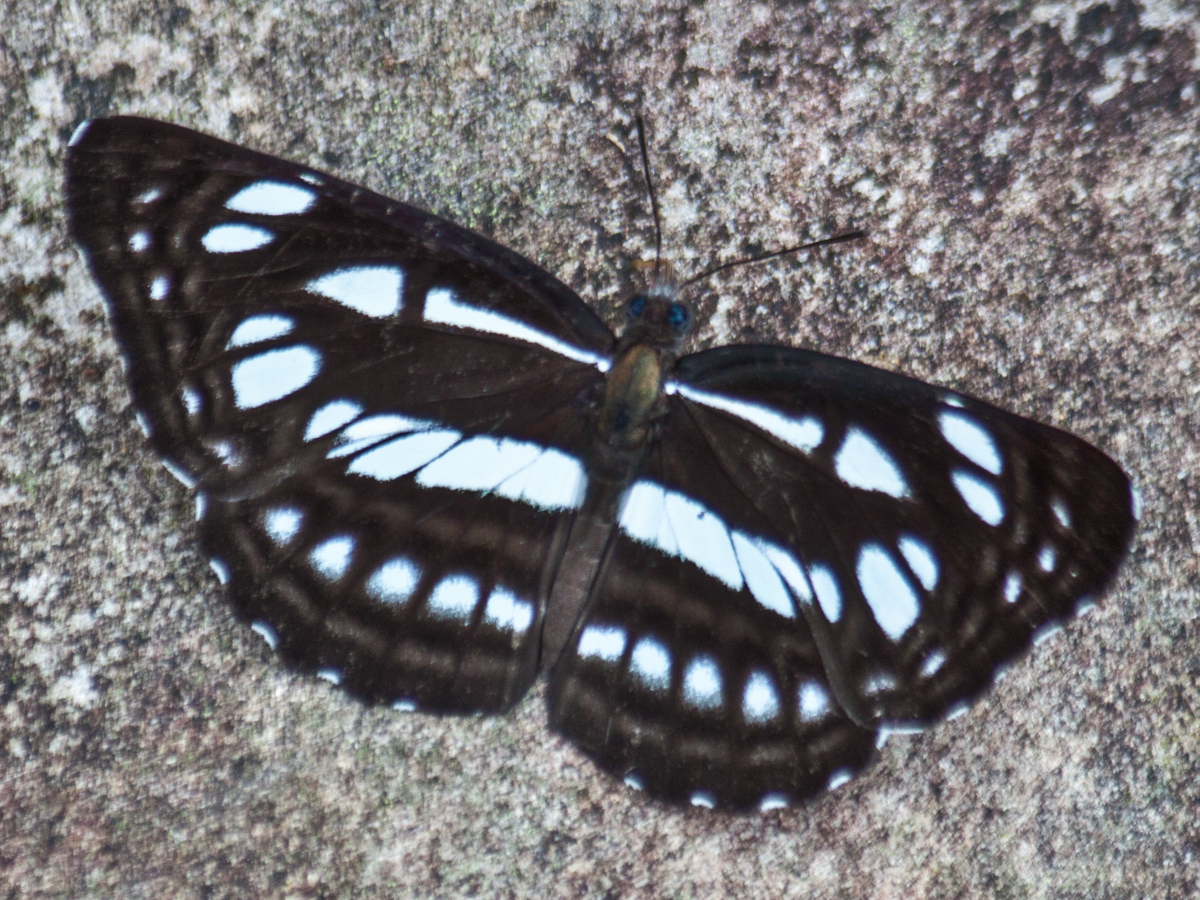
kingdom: Animalia
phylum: Arthropoda
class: Insecta
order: Lepidoptera
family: Nymphalidae
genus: Neptis
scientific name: Neptis magadha
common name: Spotted sailer
